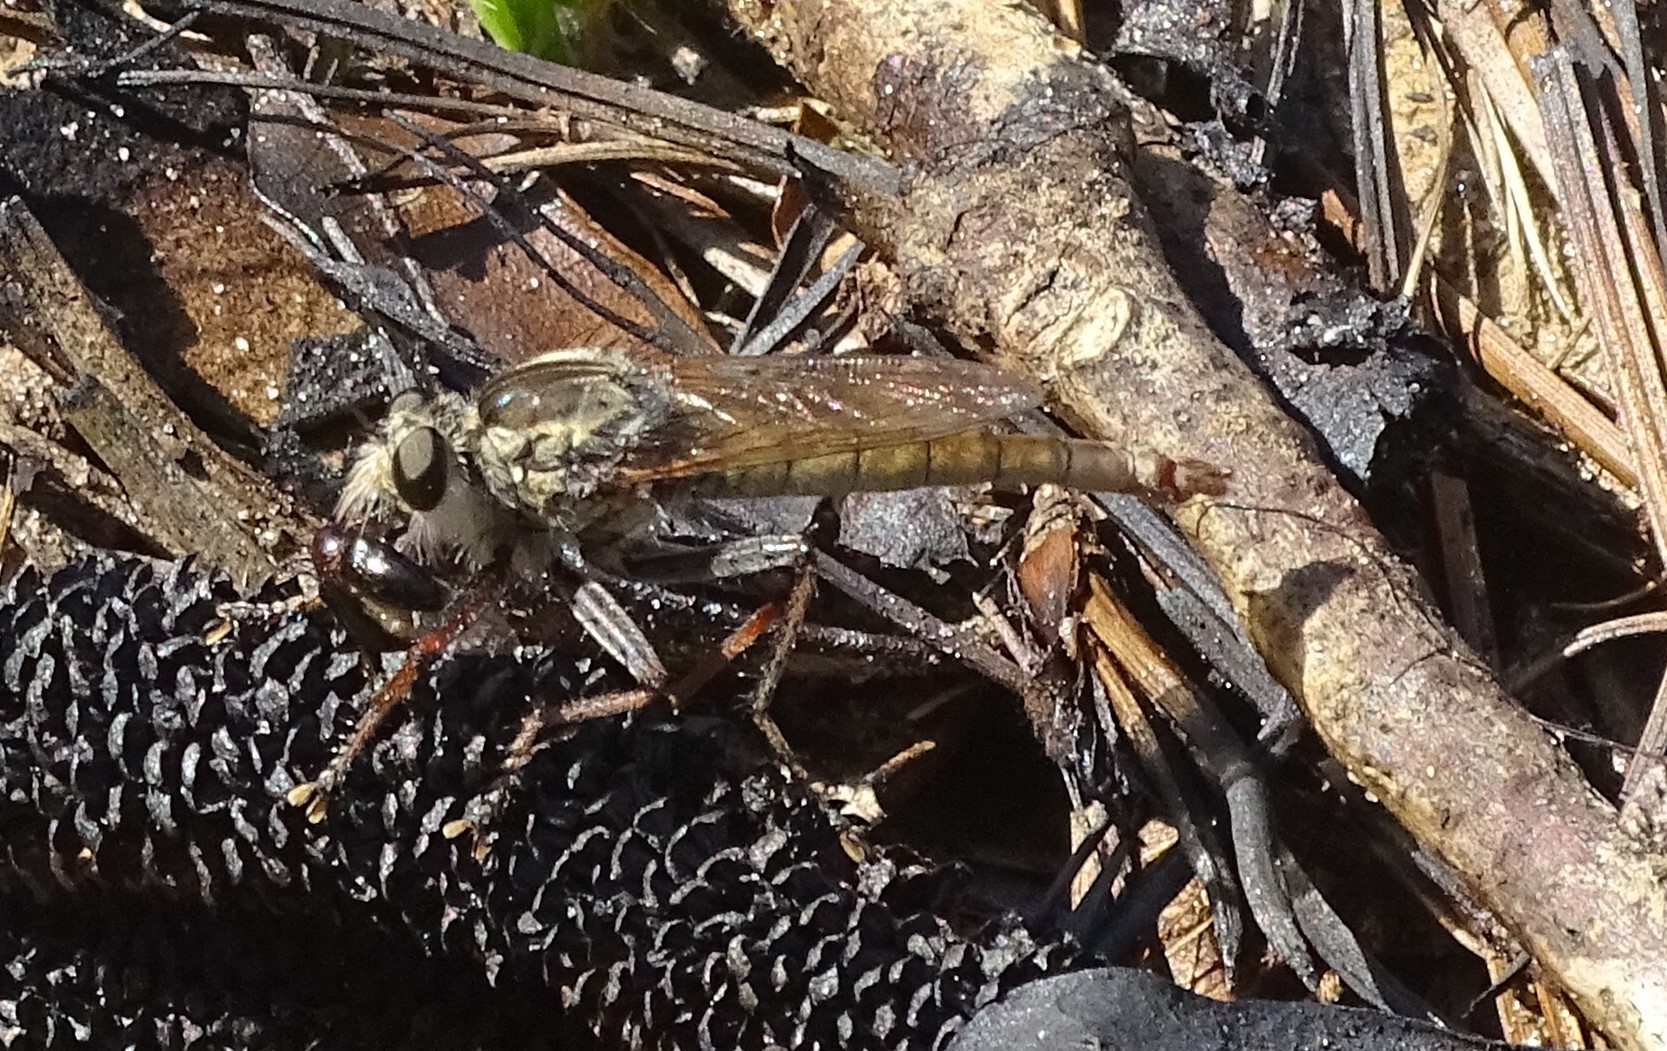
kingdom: Animalia
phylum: Arthropoda
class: Insecta
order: Diptera
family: Asilidae
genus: Proctacanthus
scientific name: Proctacanthus brevipennis
